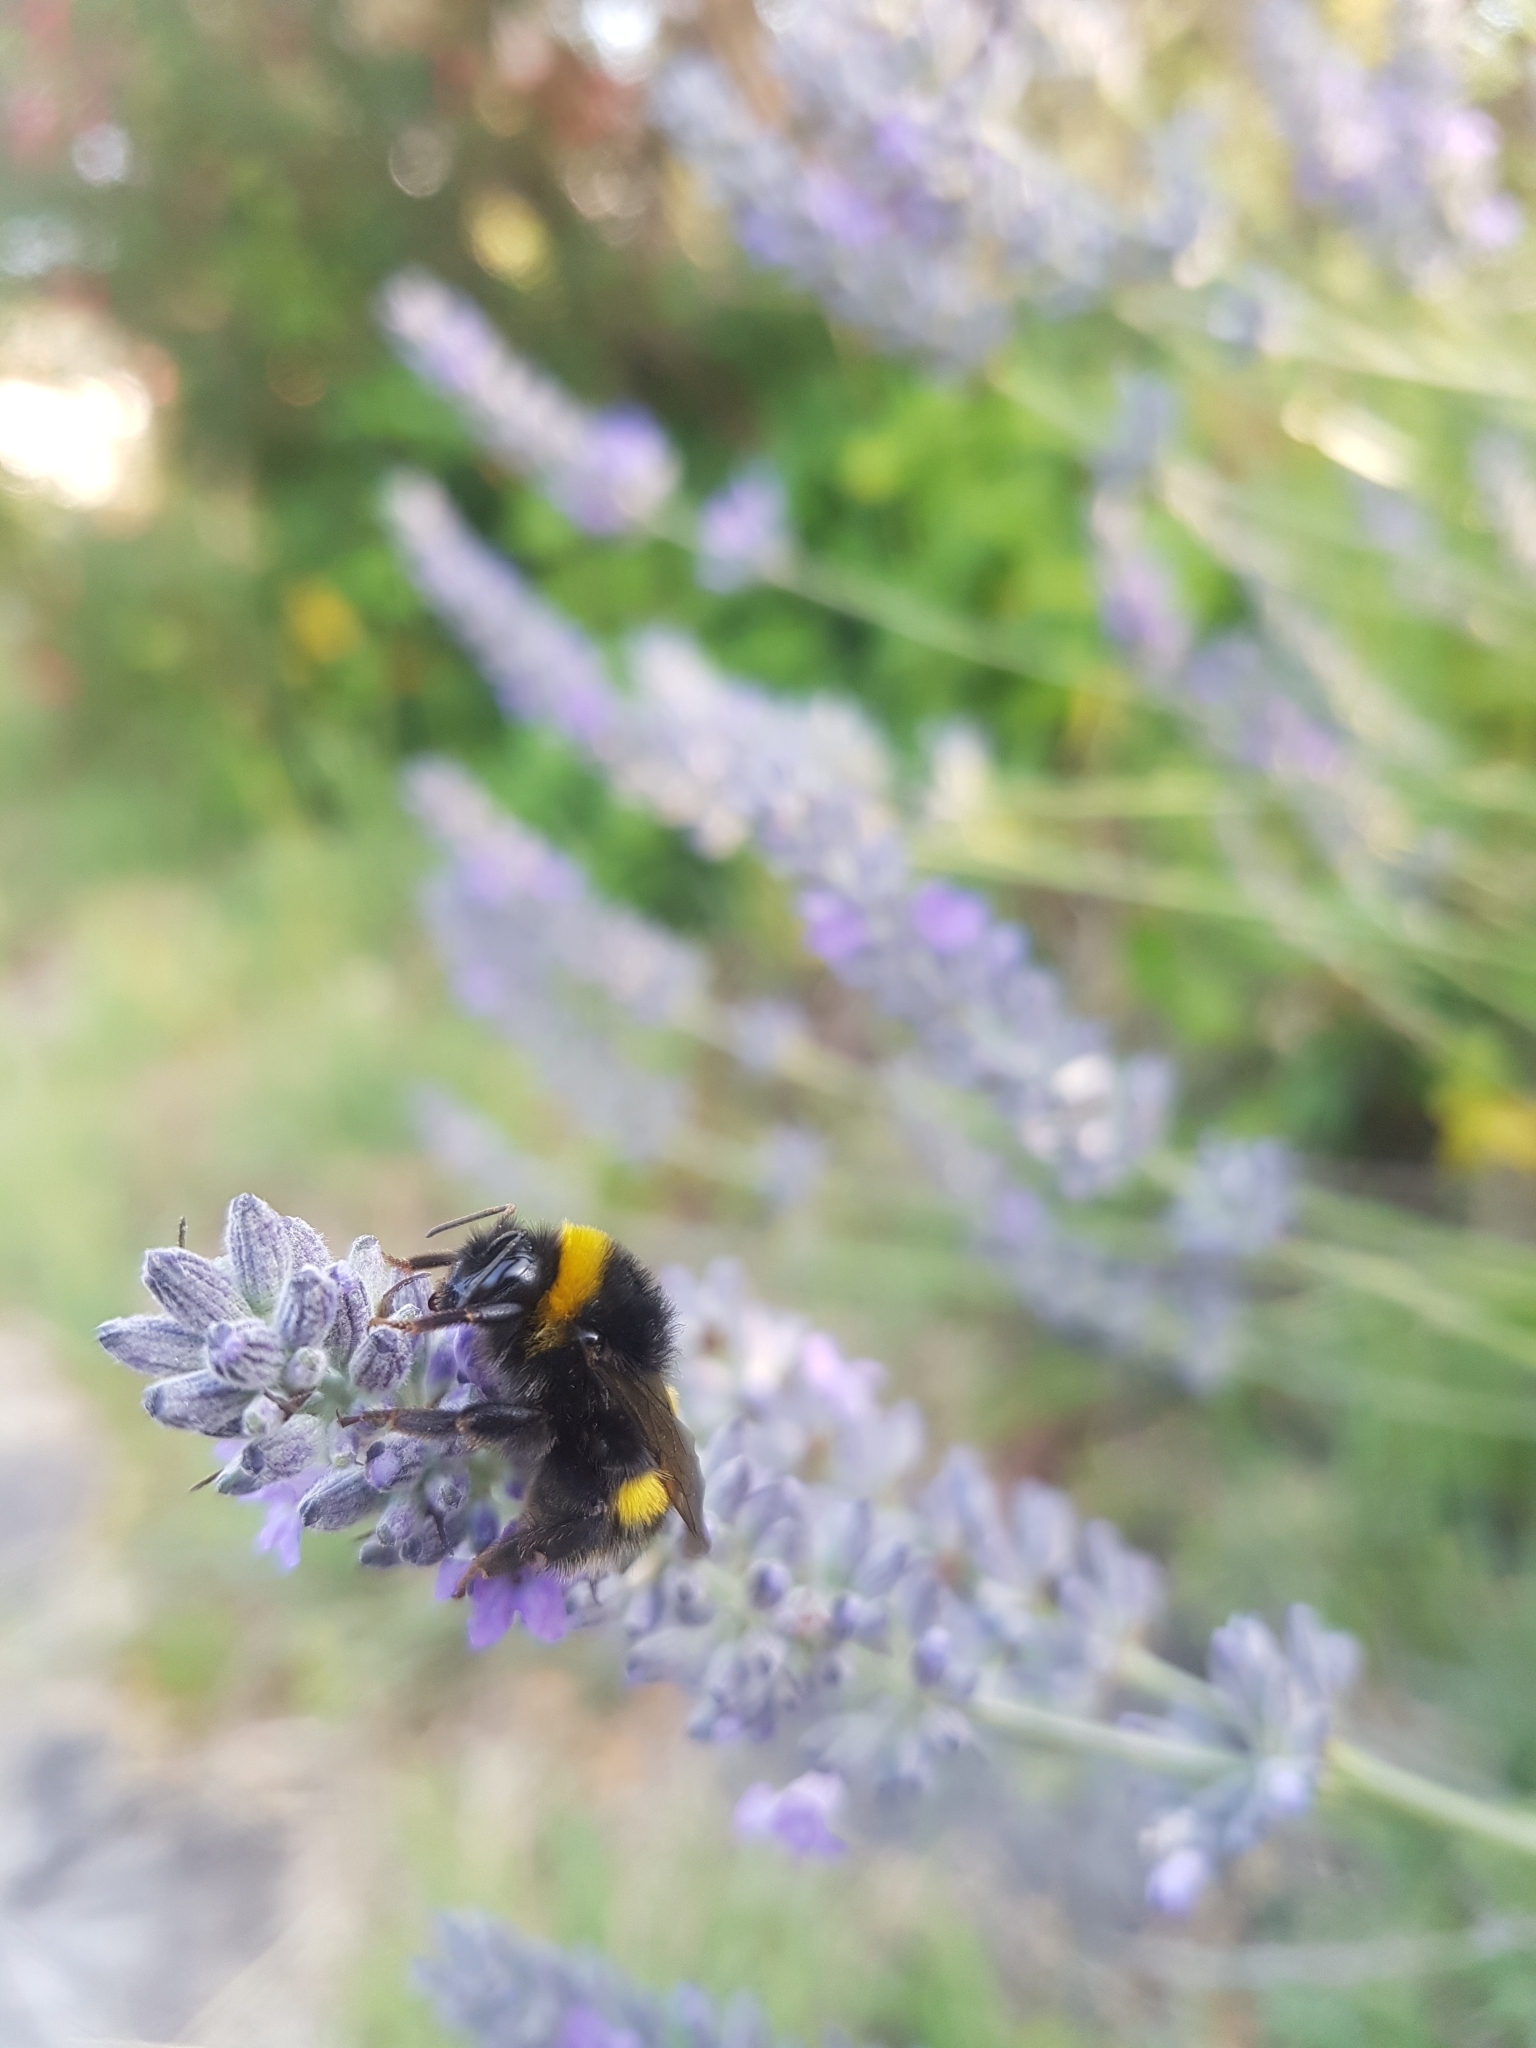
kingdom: Animalia
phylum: Arthropoda
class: Insecta
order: Hymenoptera
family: Apidae
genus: Bombus
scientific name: Bombus terrestris
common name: Buff-tailed bumblebee
